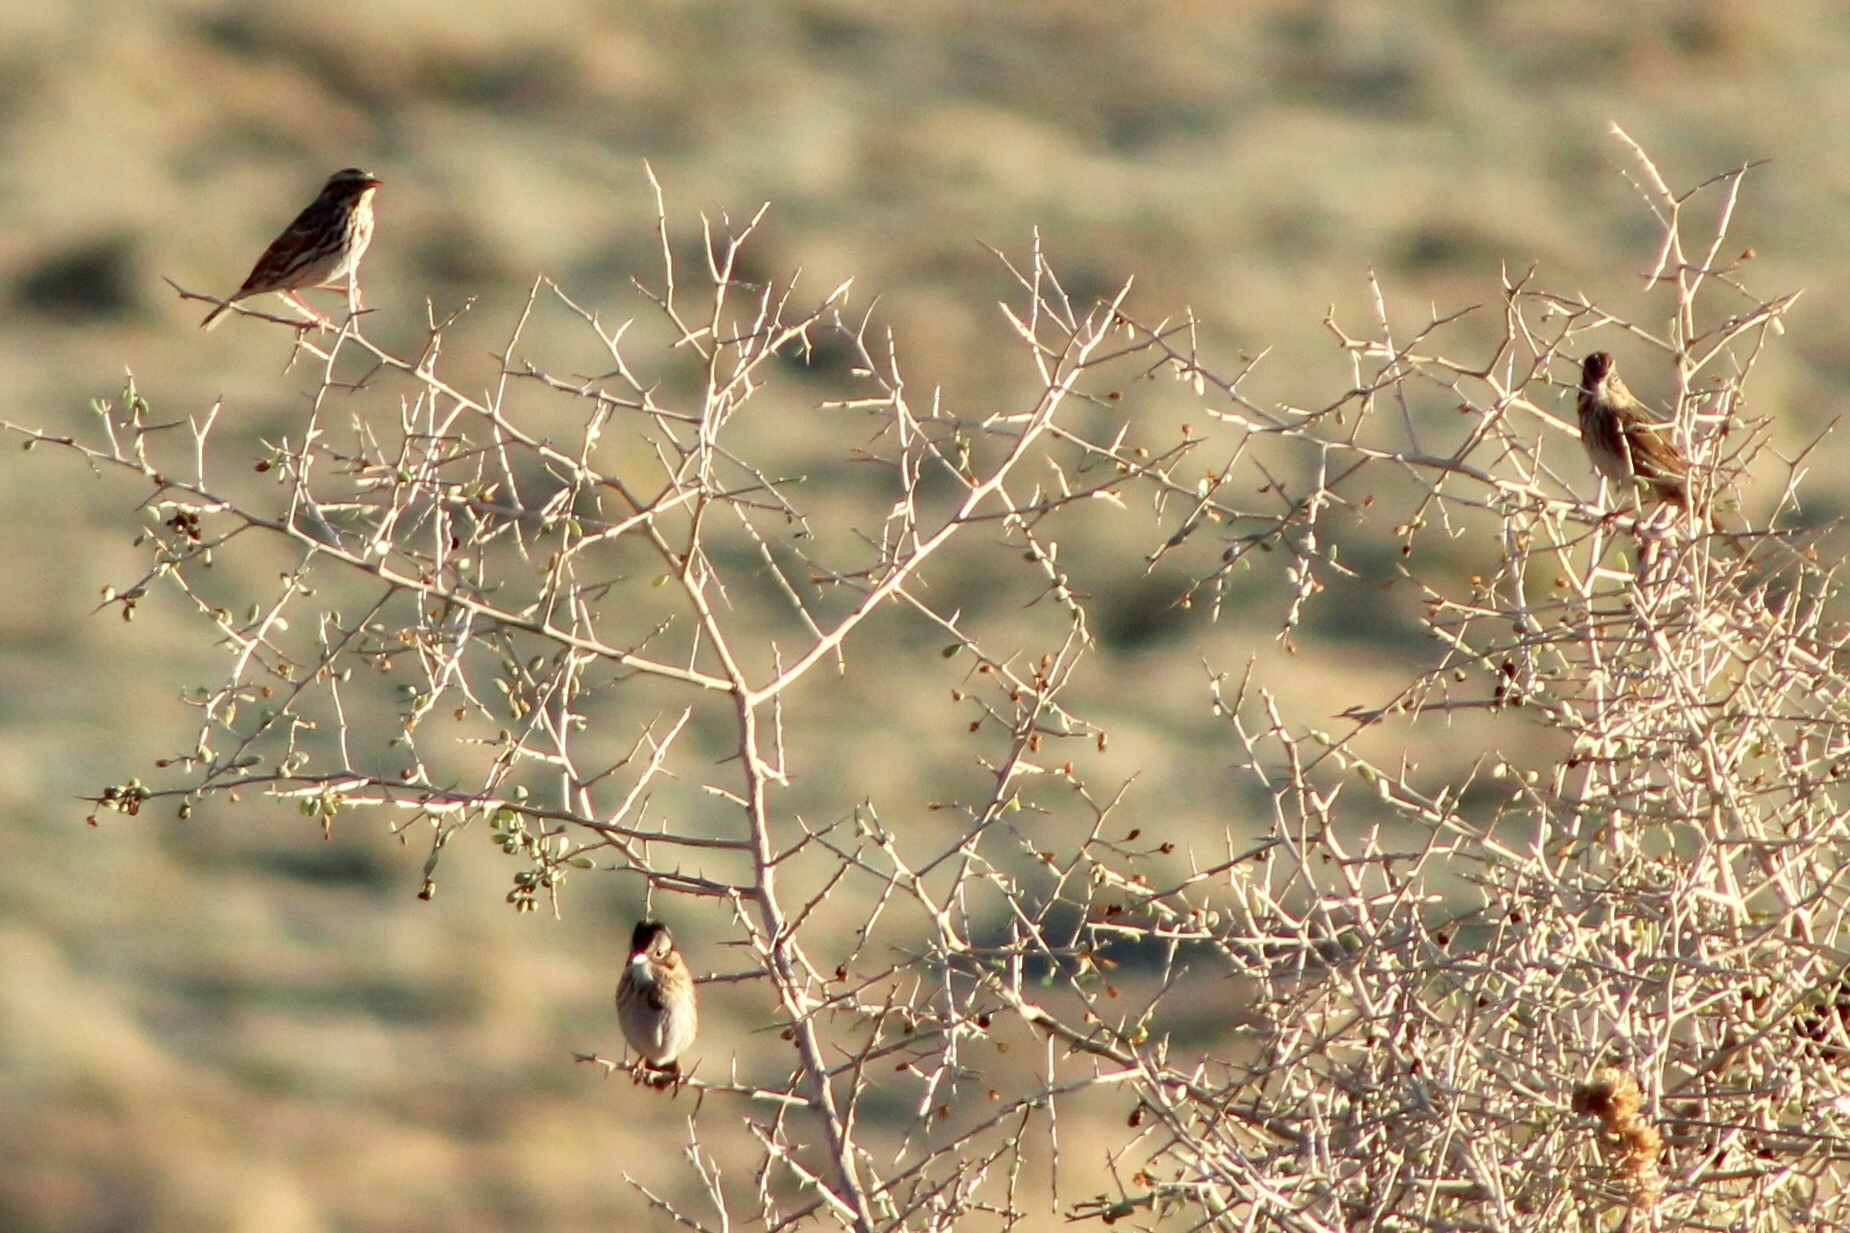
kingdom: Animalia
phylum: Chordata
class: Aves
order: Passeriformes
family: Passerellidae
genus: Passerculus
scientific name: Passerculus sandwichensis
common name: Savannah sparrow
